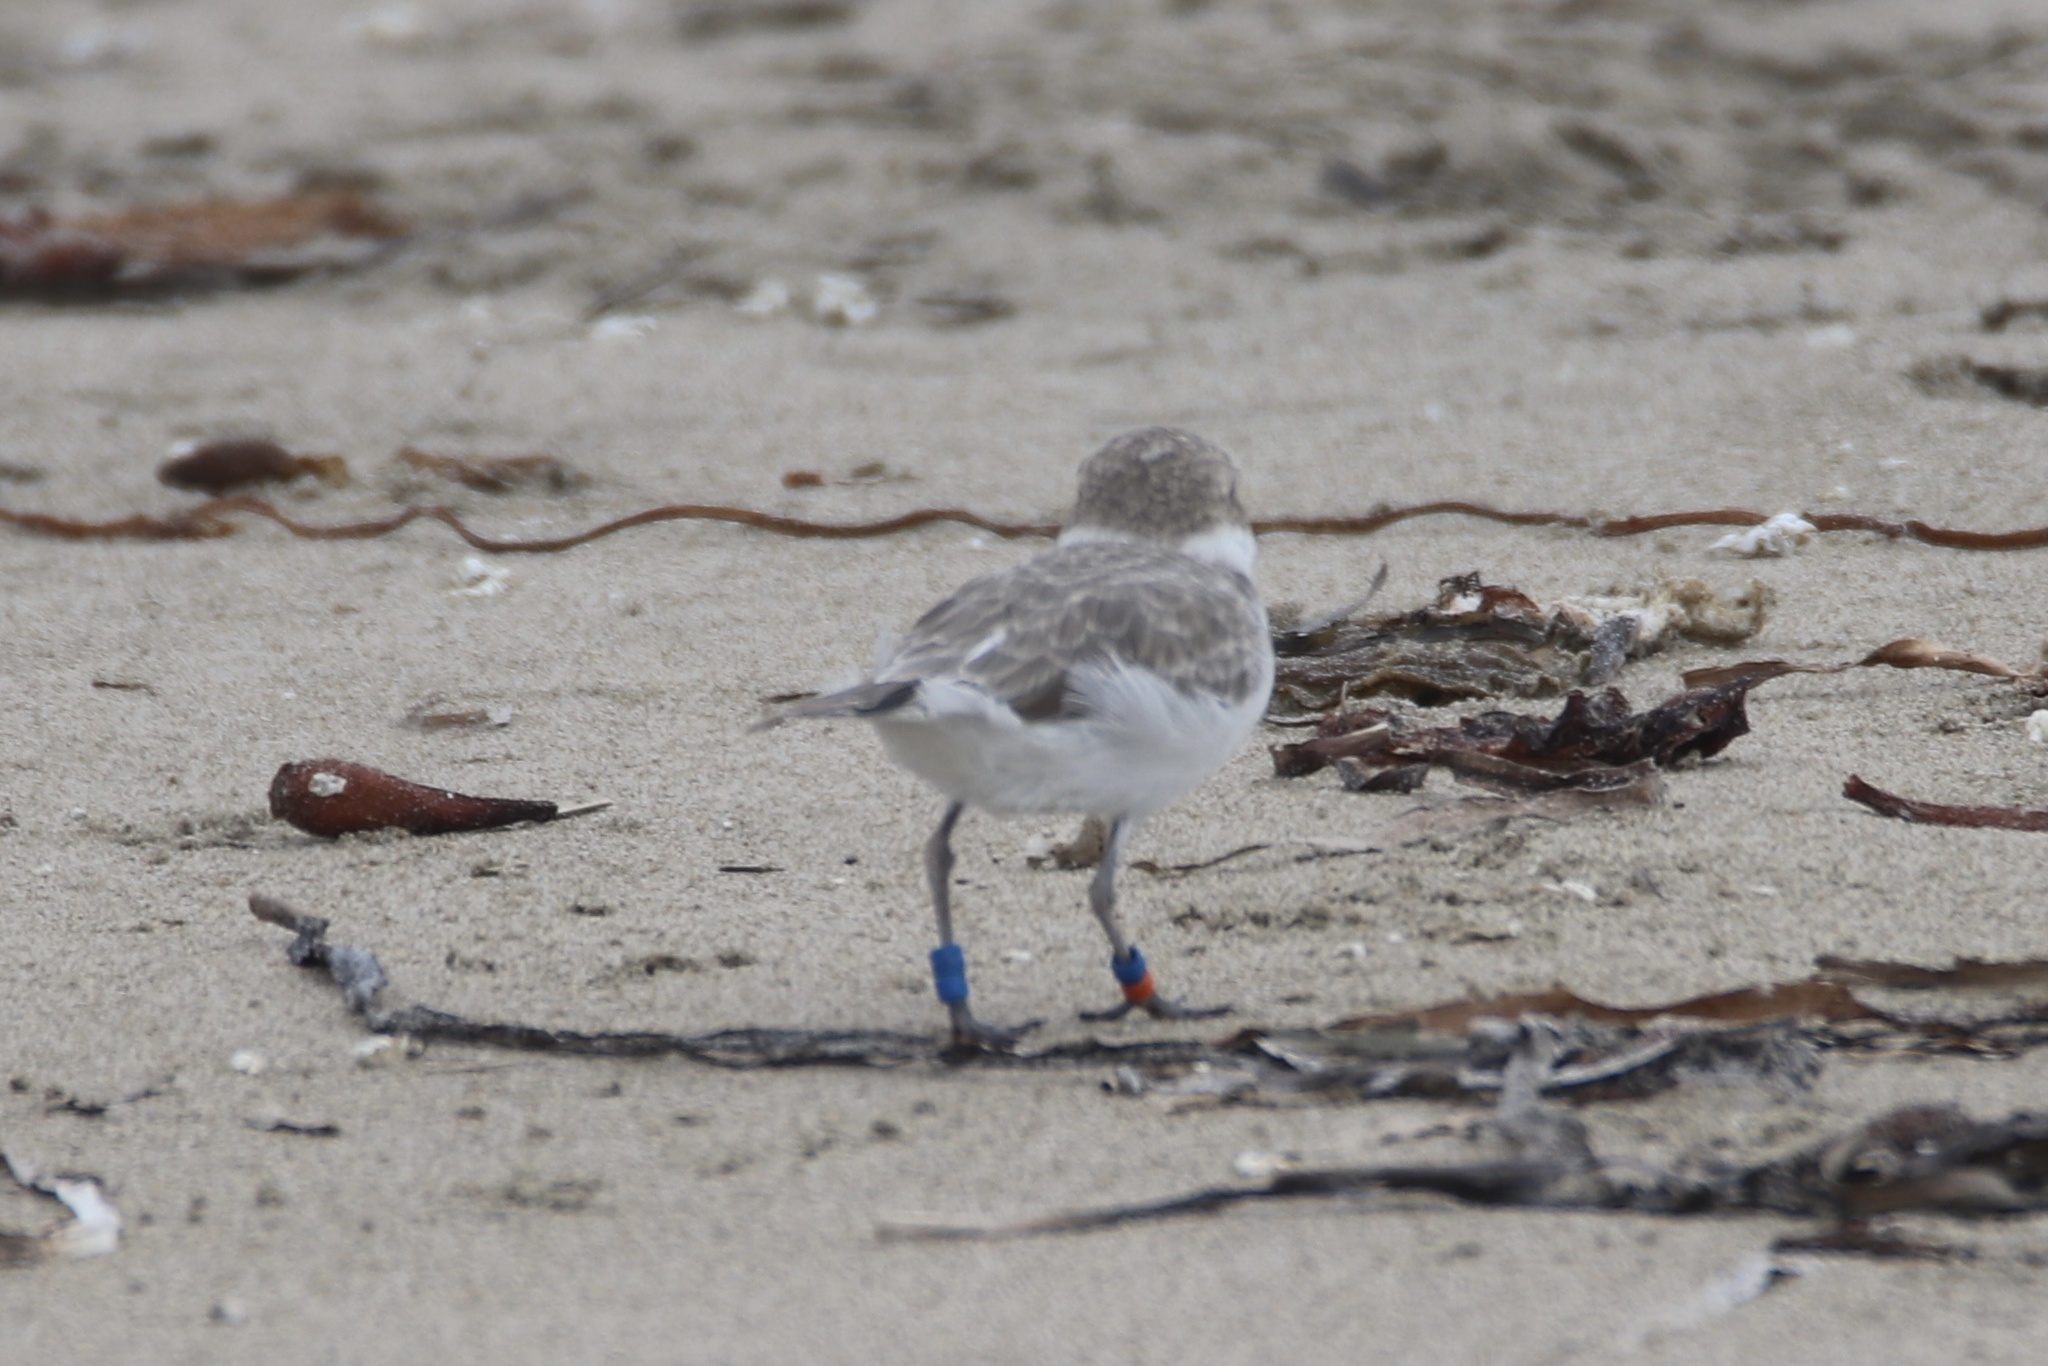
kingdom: Animalia
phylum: Chordata
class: Aves
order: Charadriiformes
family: Charadriidae
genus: Anarhynchus
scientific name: Anarhynchus
